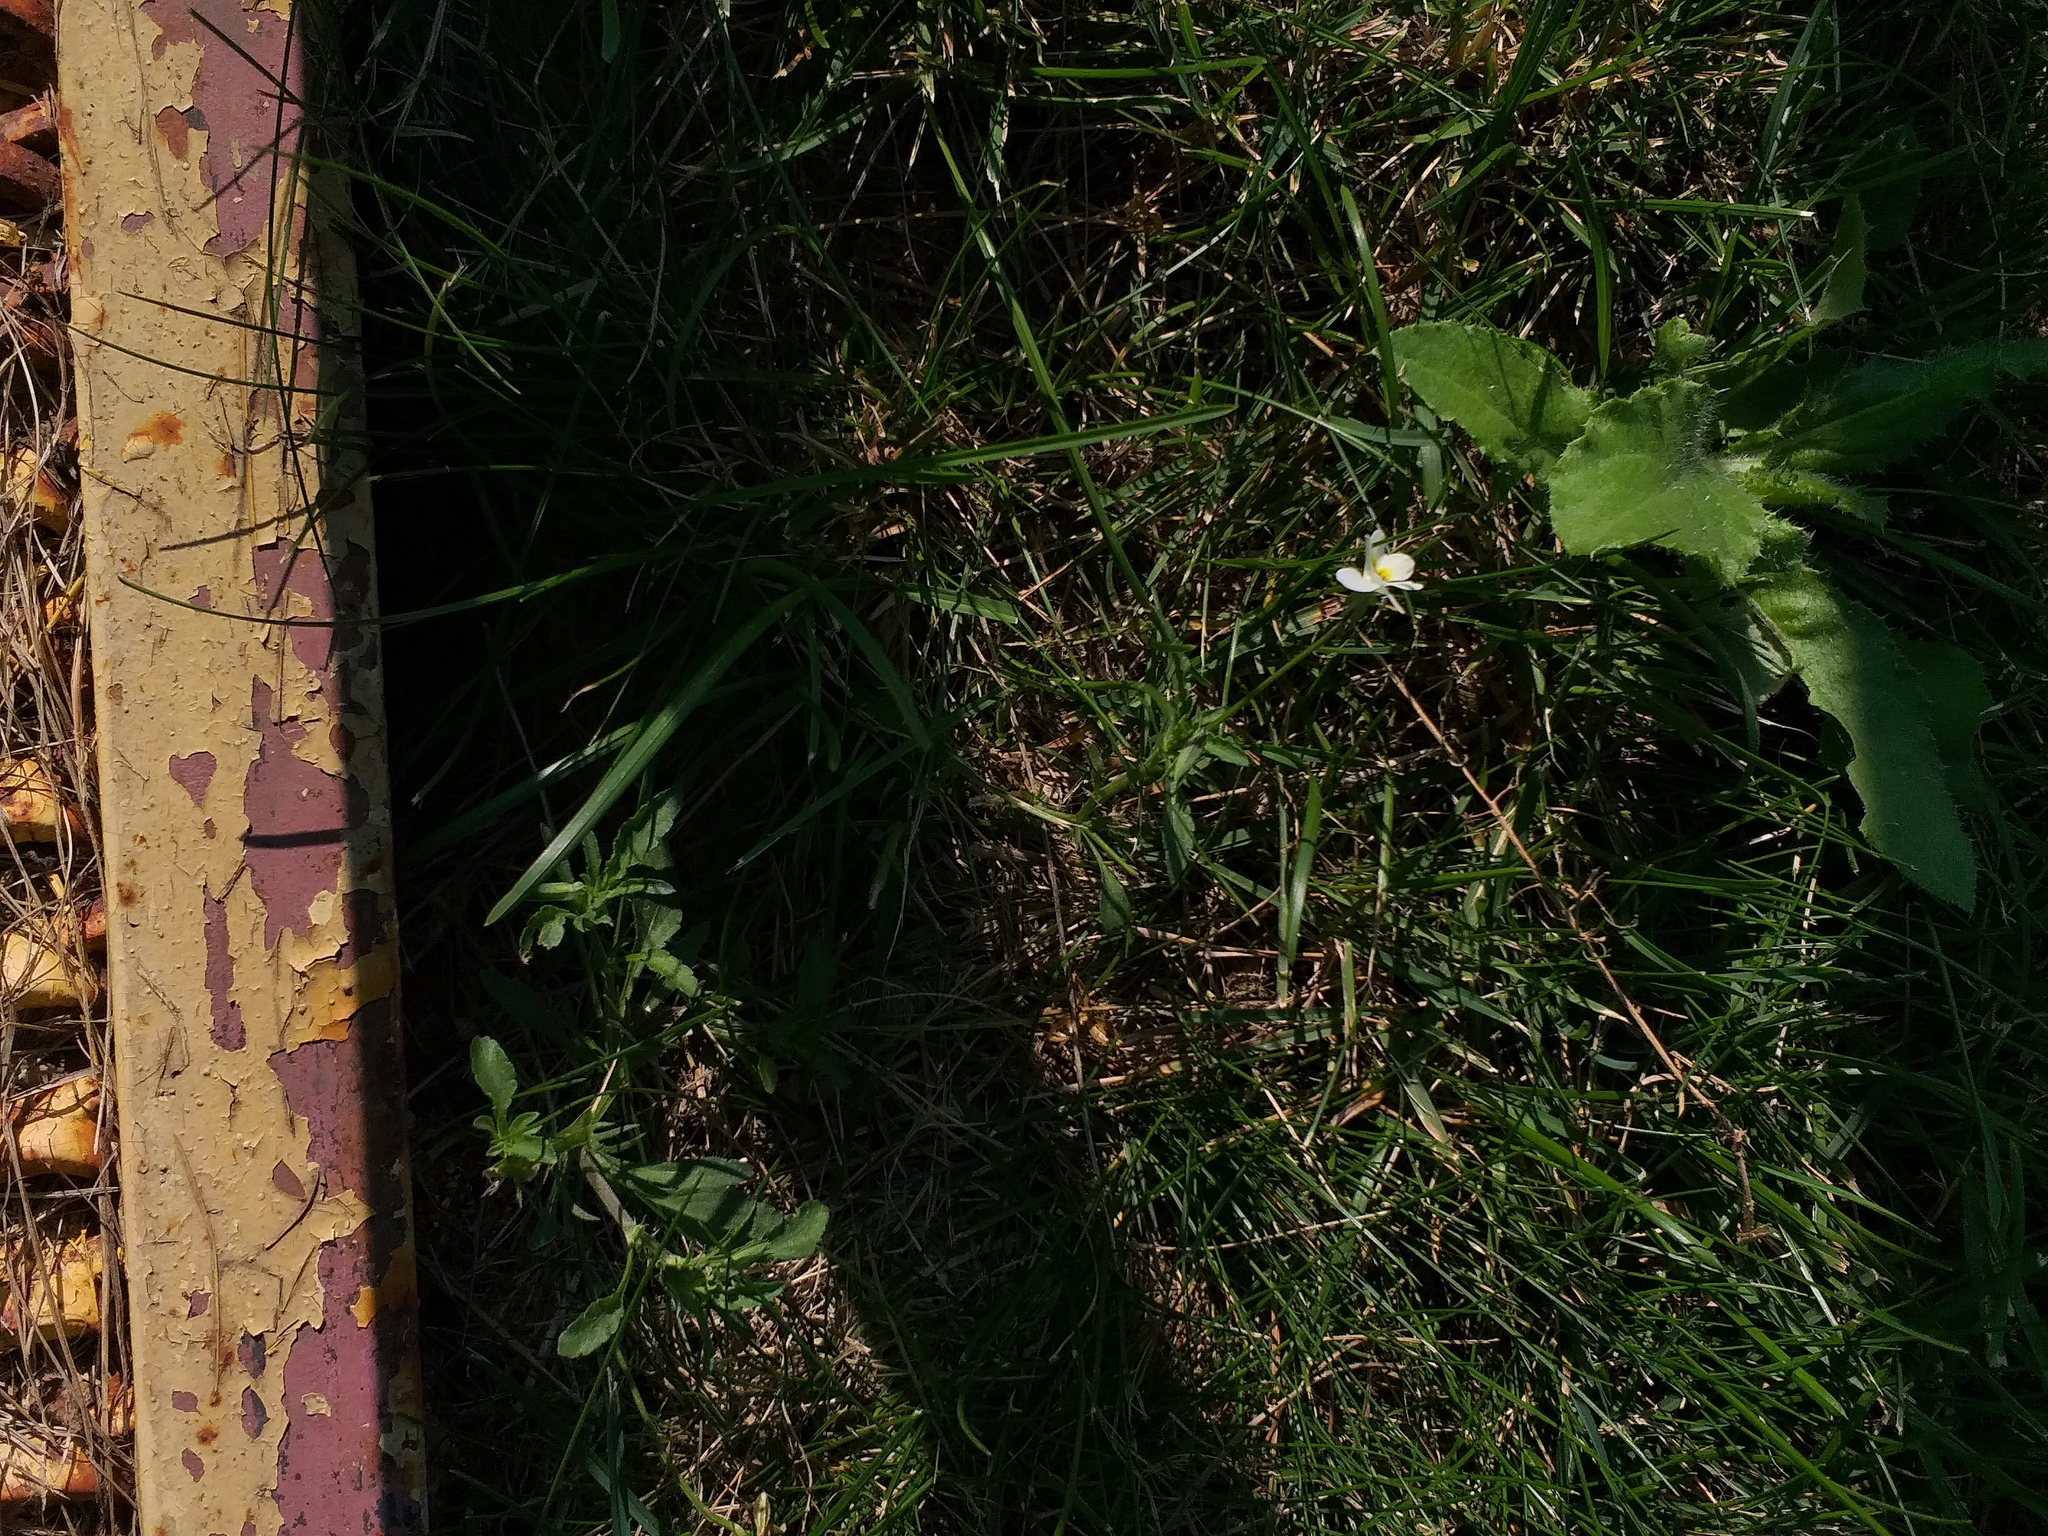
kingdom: Plantae
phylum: Tracheophyta
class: Magnoliopsida
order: Malpighiales
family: Violaceae
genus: Viola
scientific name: Viola arvensis
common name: Field pansy
